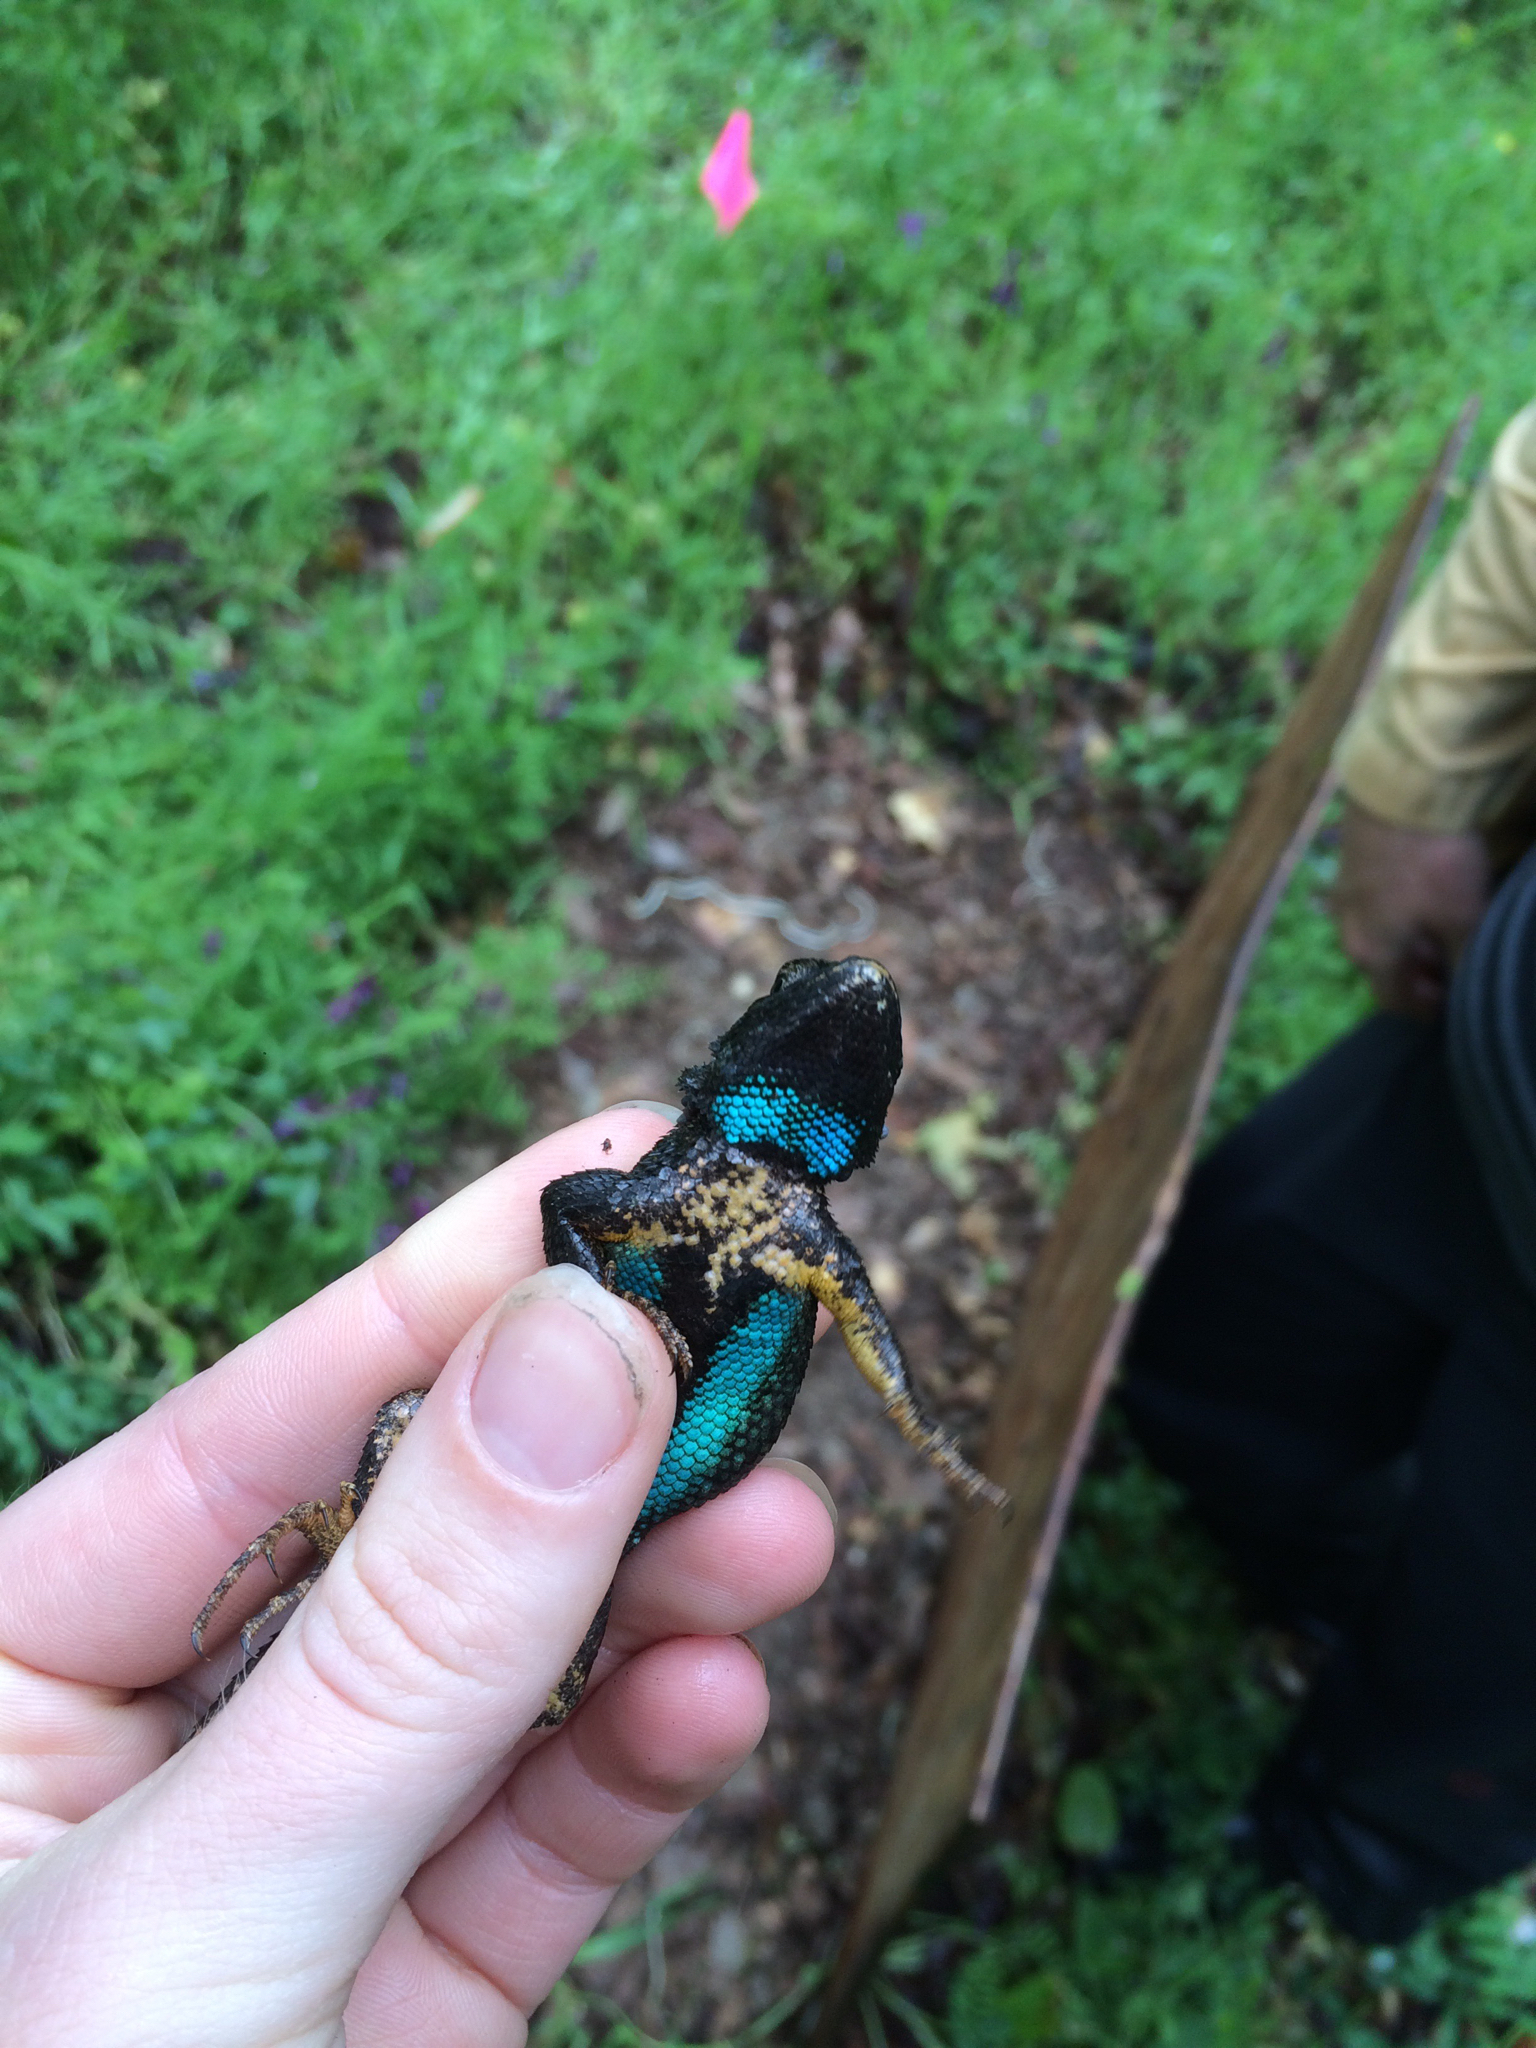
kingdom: Animalia
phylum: Chordata
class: Squamata
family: Phrynosomatidae
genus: Sceloporus
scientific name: Sceloporus occidentalis
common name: Western fence lizard
